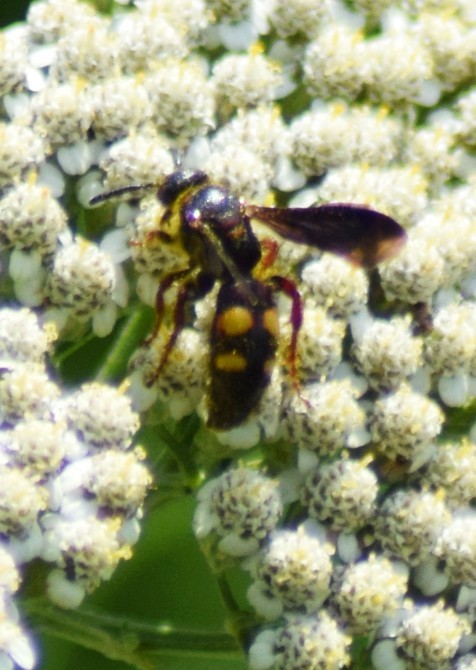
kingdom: Animalia
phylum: Arthropoda
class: Insecta
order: Hymenoptera
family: Scoliidae
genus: Scolia
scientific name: Scolia nobilitata
